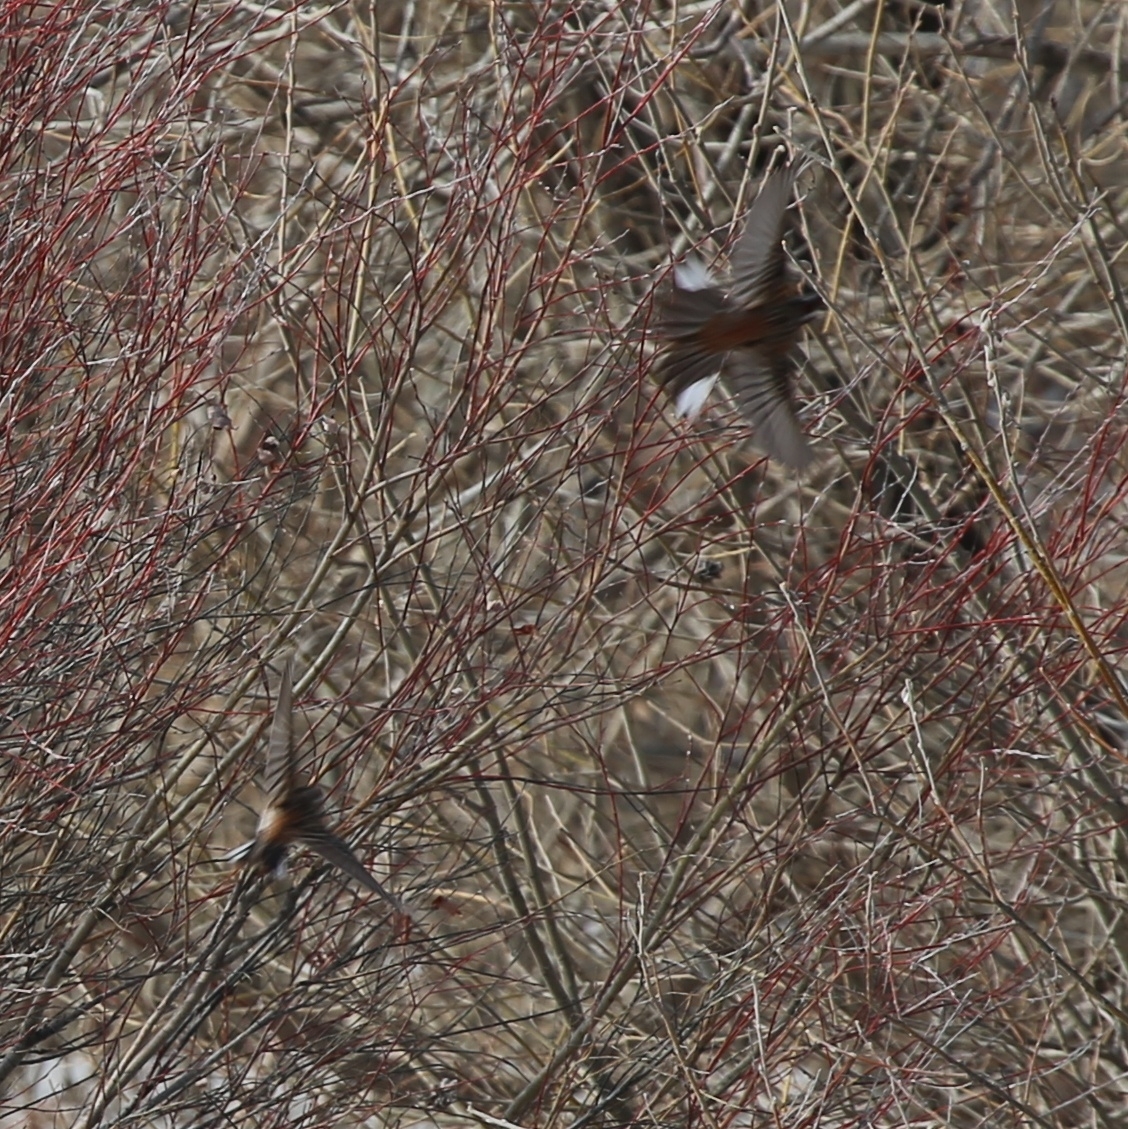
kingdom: Animalia
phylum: Chordata
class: Aves
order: Passeriformes
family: Emberizidae
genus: Emberiza
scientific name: Emberiza leucocephalos
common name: Pine bunting
